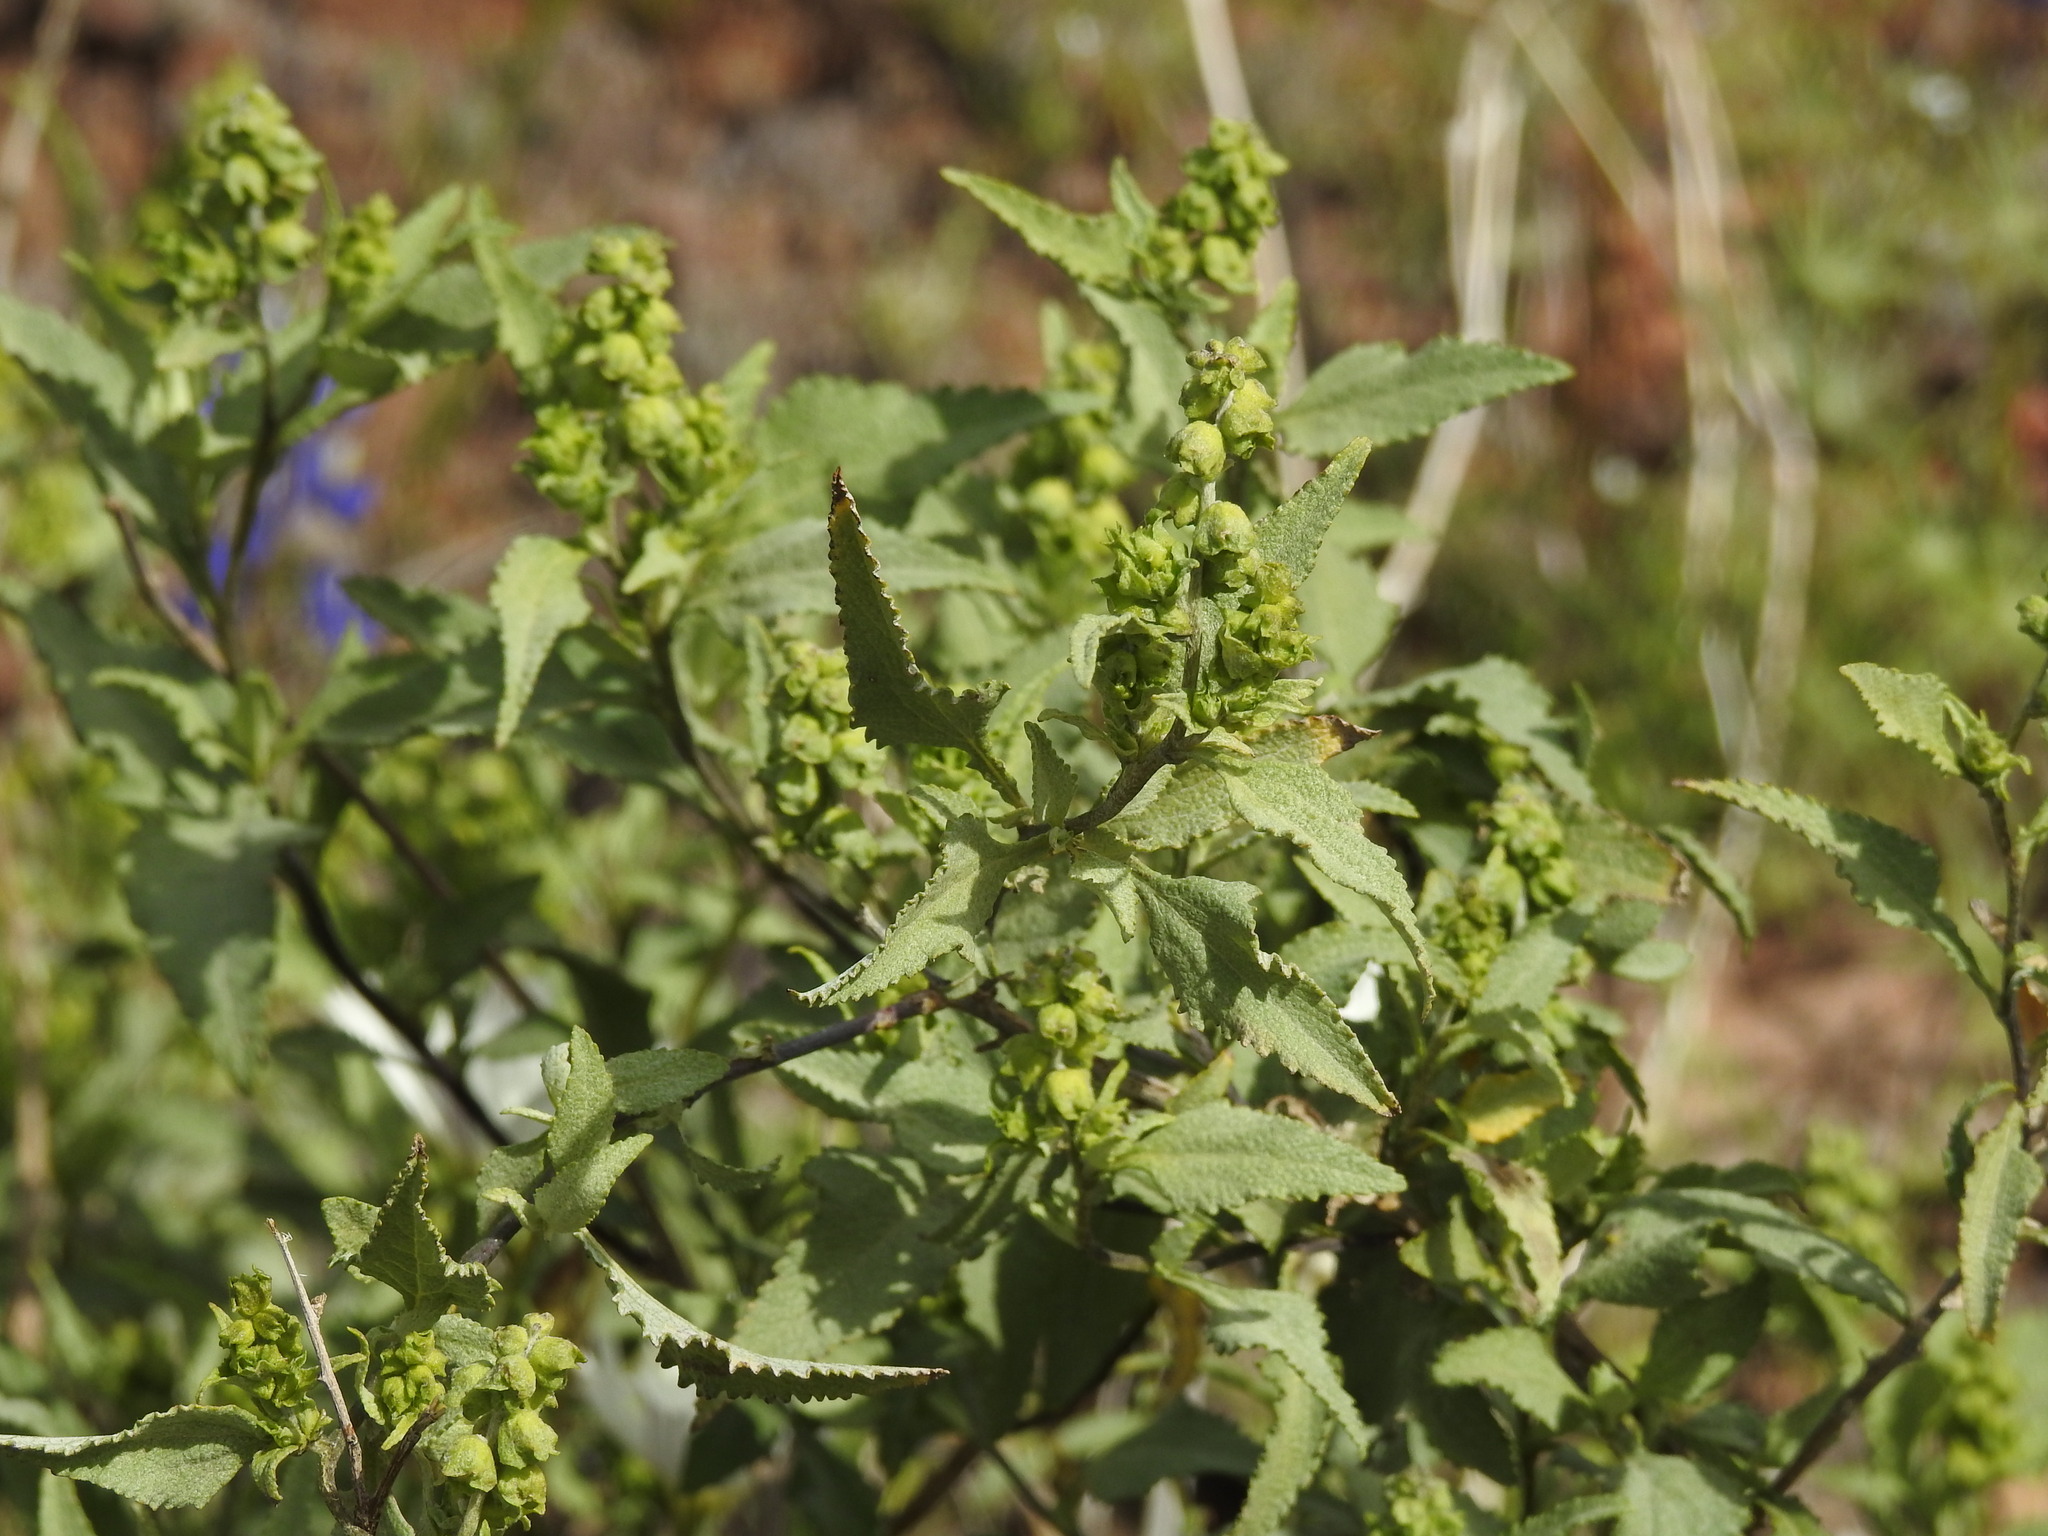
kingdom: Plantae
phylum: Tracheophyta
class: Magnoliopsida
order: Asterales
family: Asteraceae
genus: Ambrosia
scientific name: Ambrosia deltoidea
